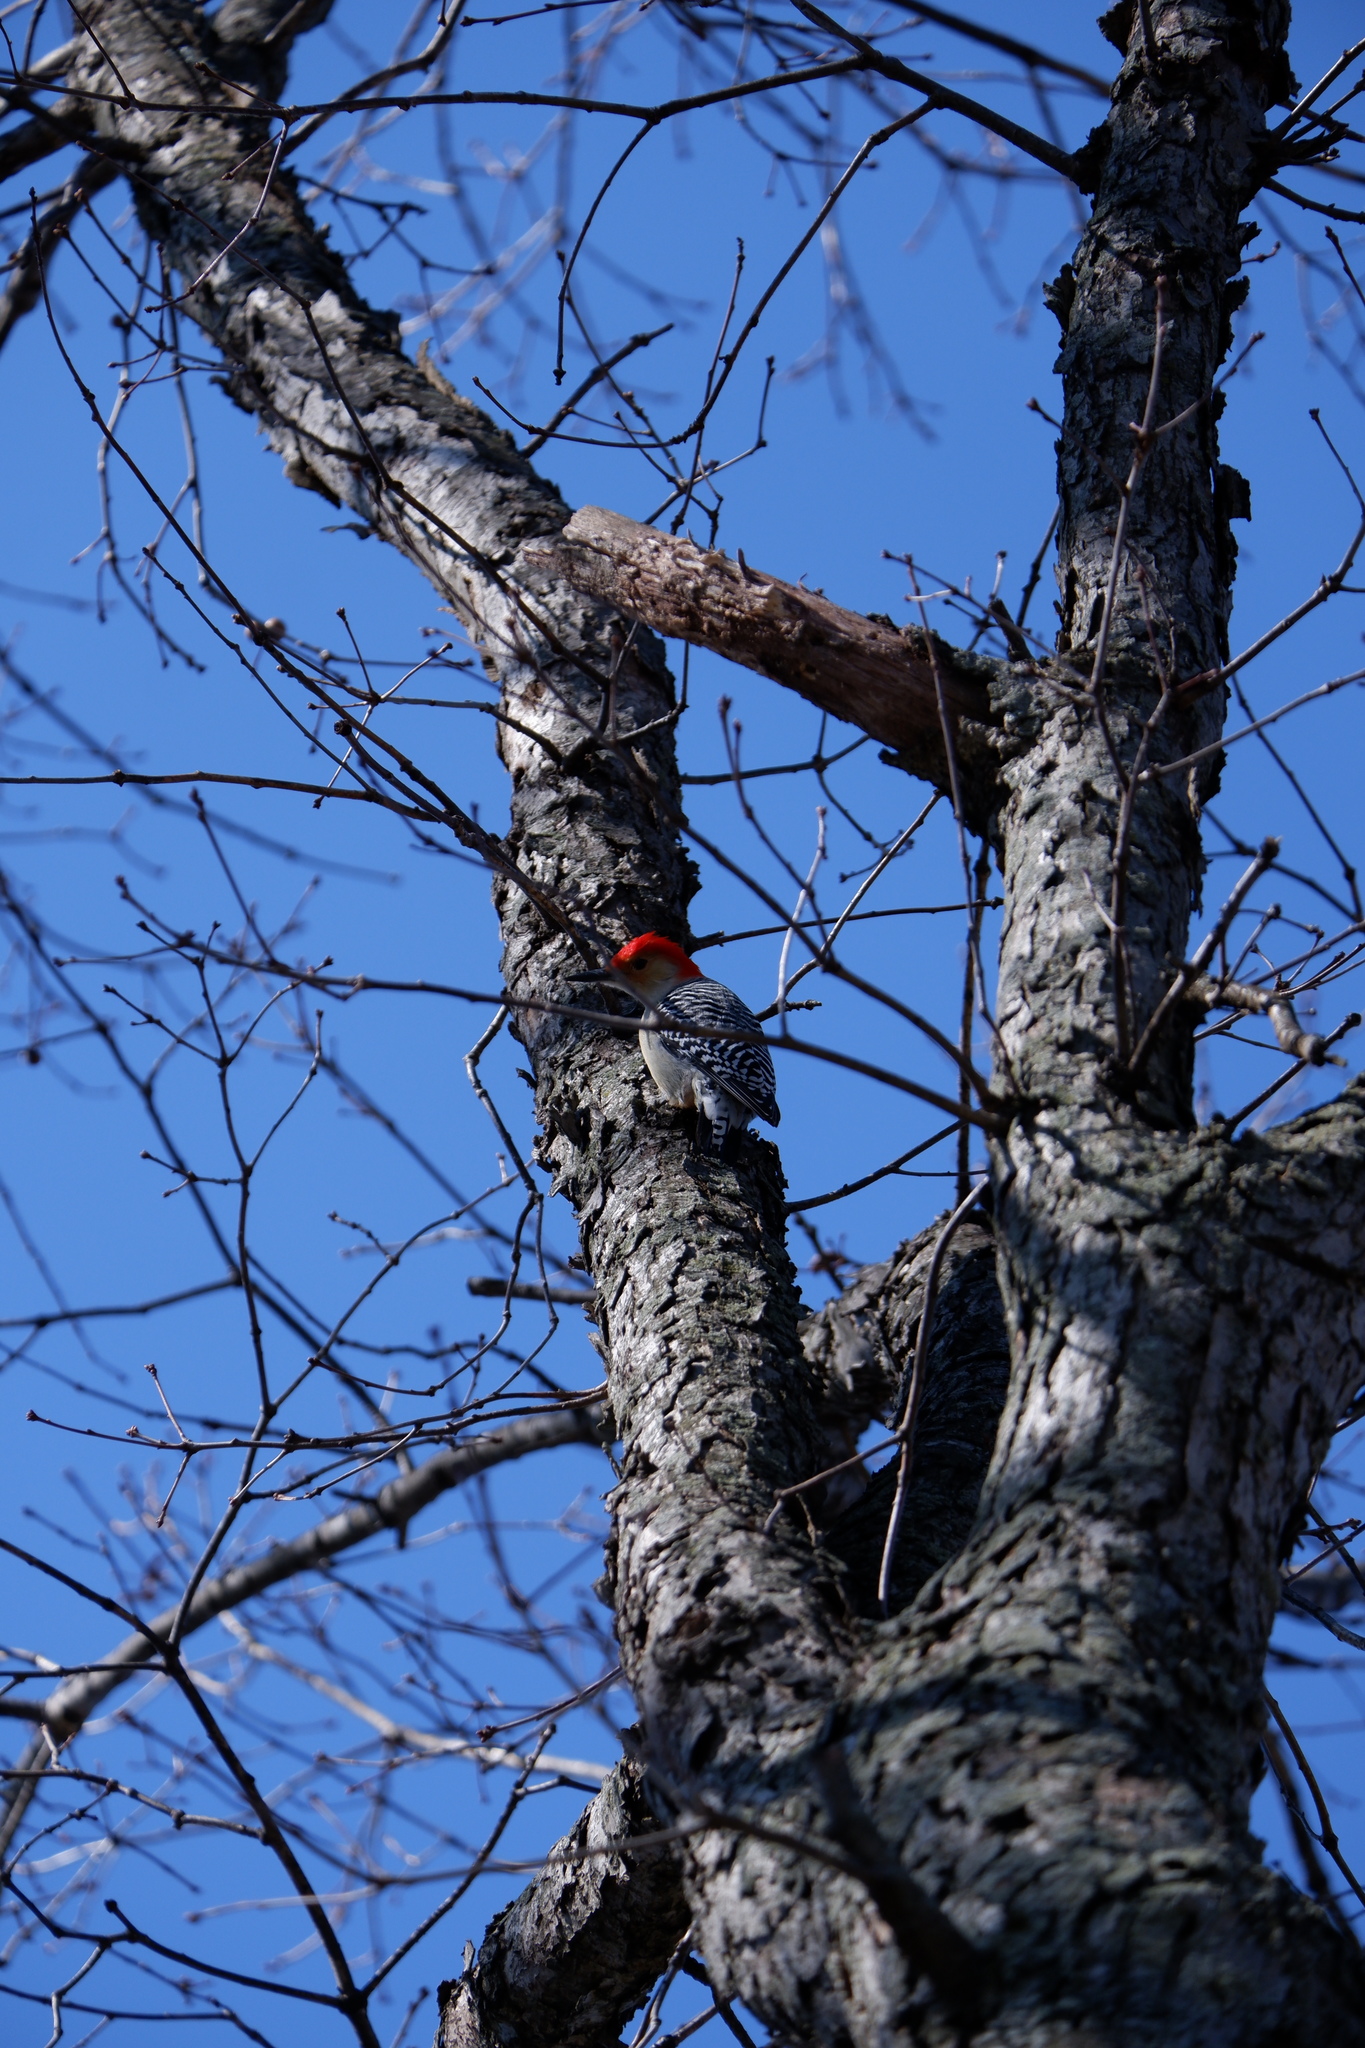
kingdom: Animalia
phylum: Chordata
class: Aves
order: Piciformes
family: Picidae
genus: Melanerpes
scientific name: Melanerpes carolinus
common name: Red-bellied woodpecker
